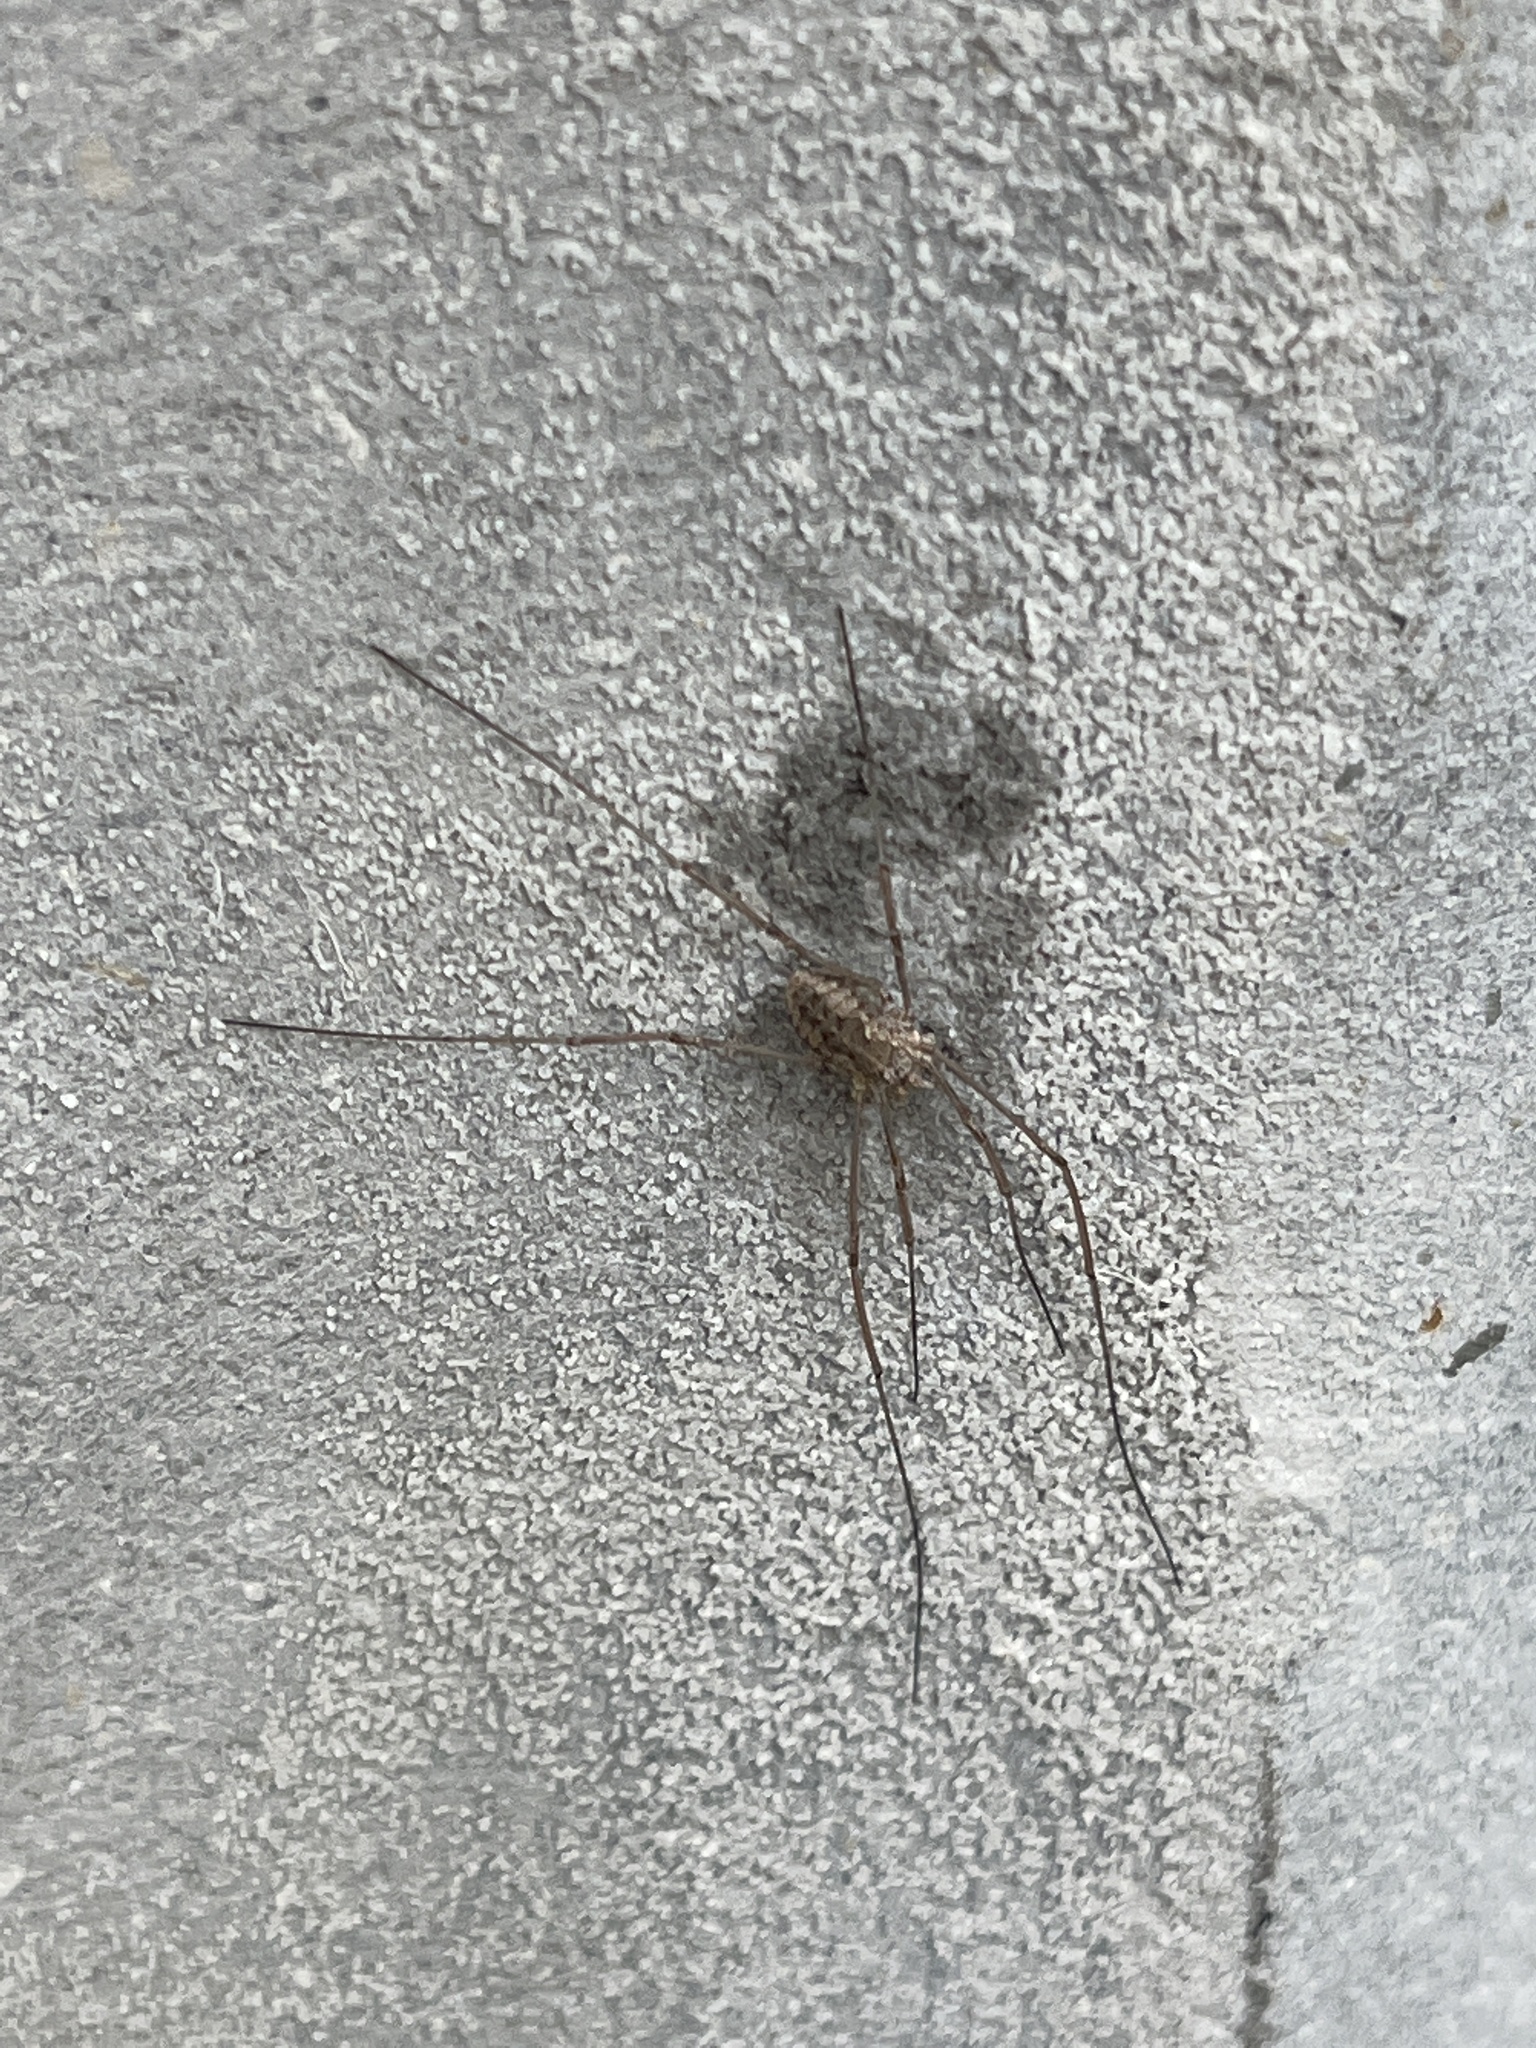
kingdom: Animalia
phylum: Arthropoda
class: Arachnida
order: Opiliones
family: Phalangiidae
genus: Phalangium
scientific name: Phalangium opilio
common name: Daddy longleg
